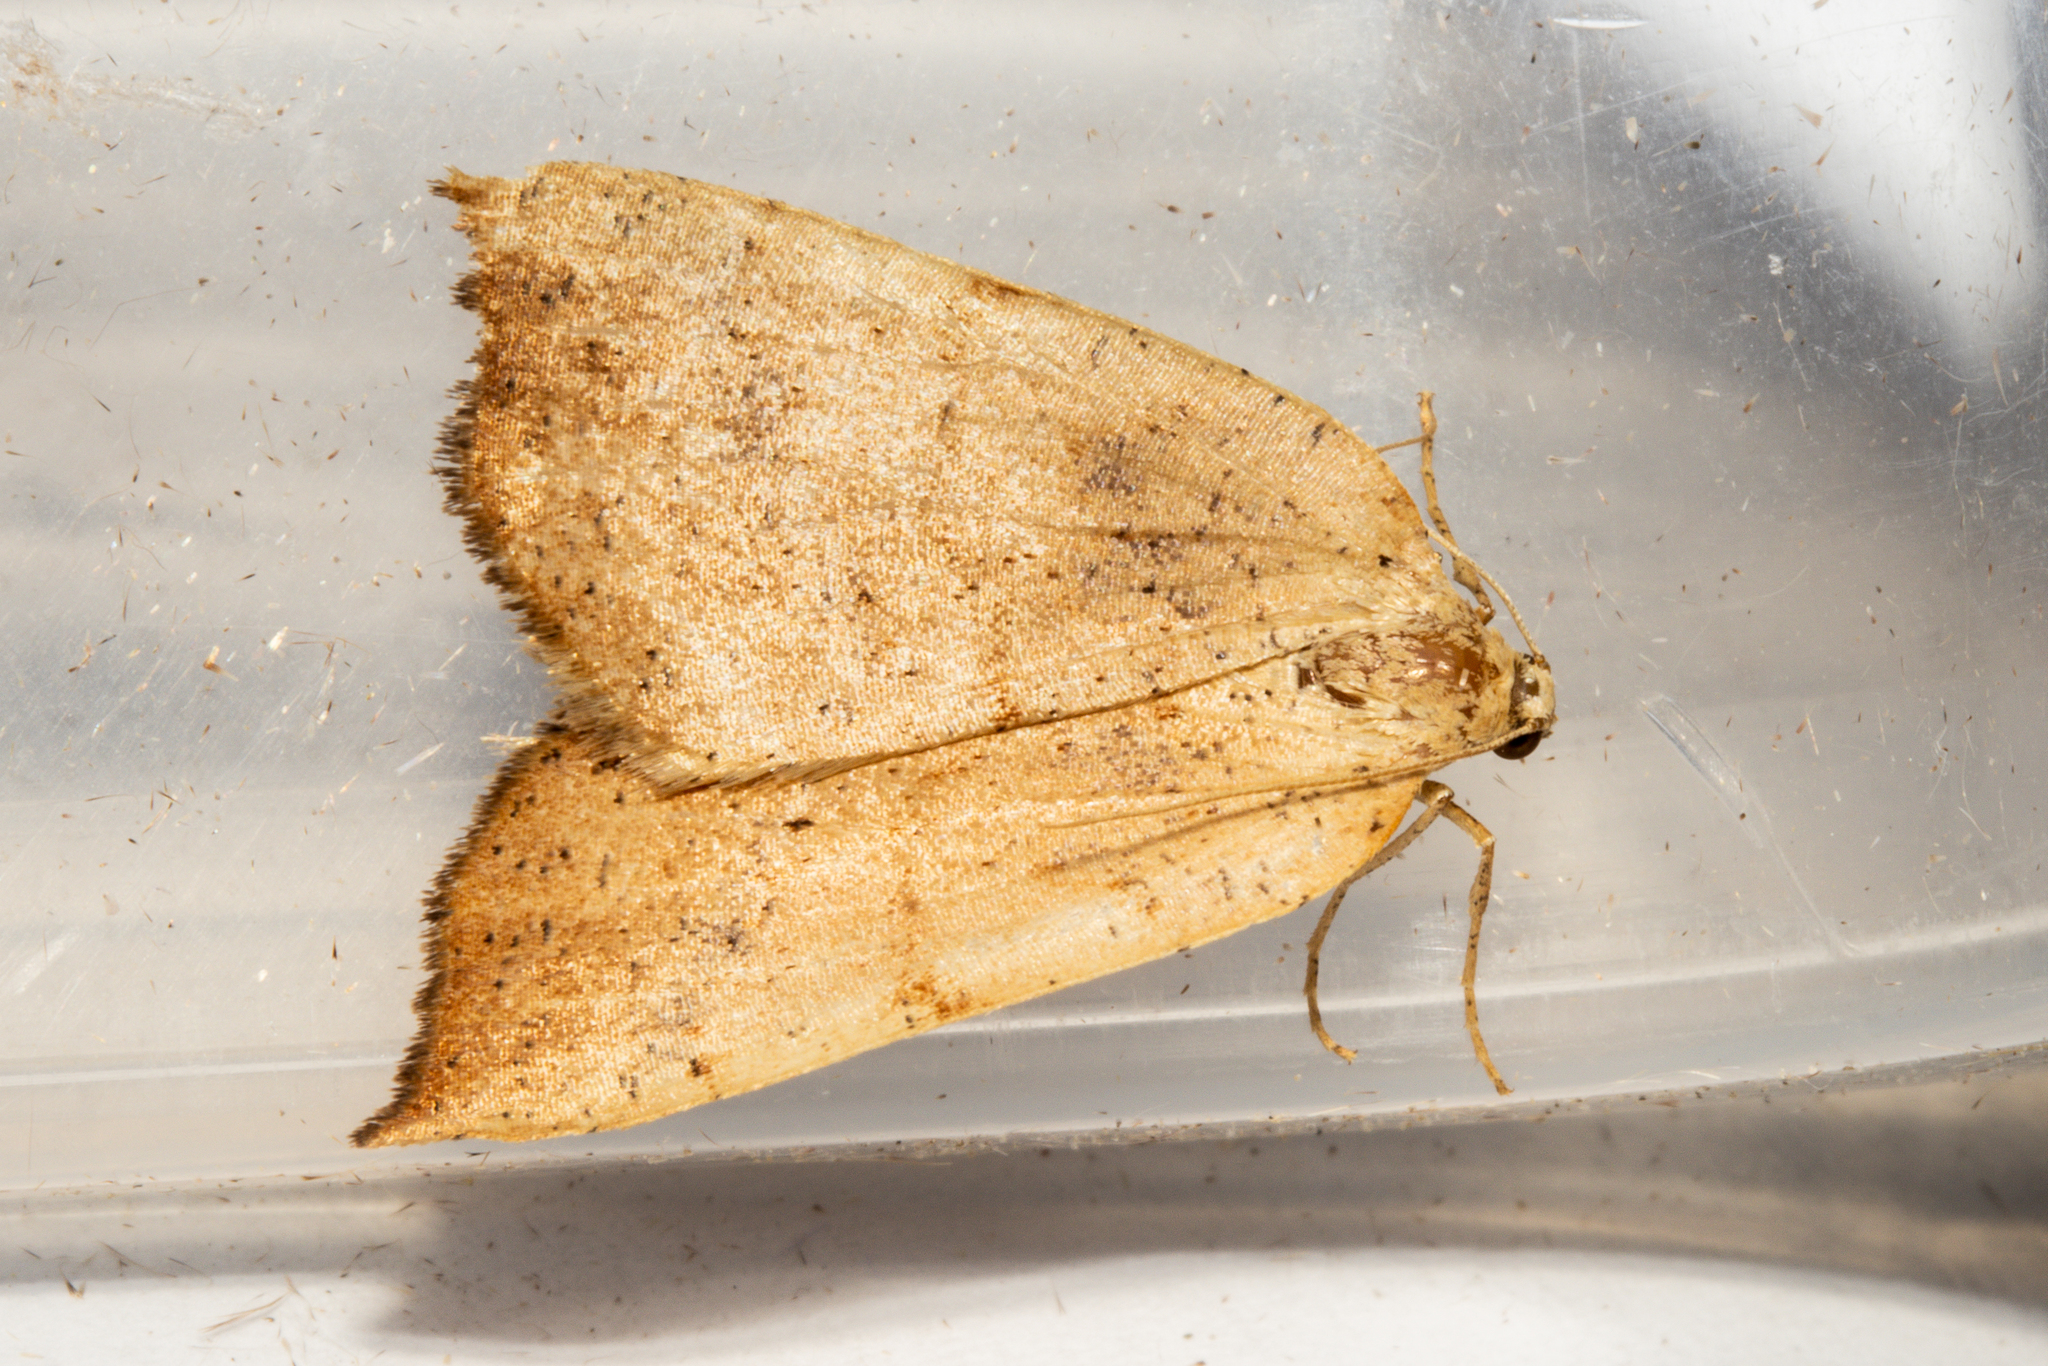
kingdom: Animalia
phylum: Arthropoda
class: Insecta
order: Lepidoptera
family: Geometridae
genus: Sestra
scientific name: Sestra humeraria
